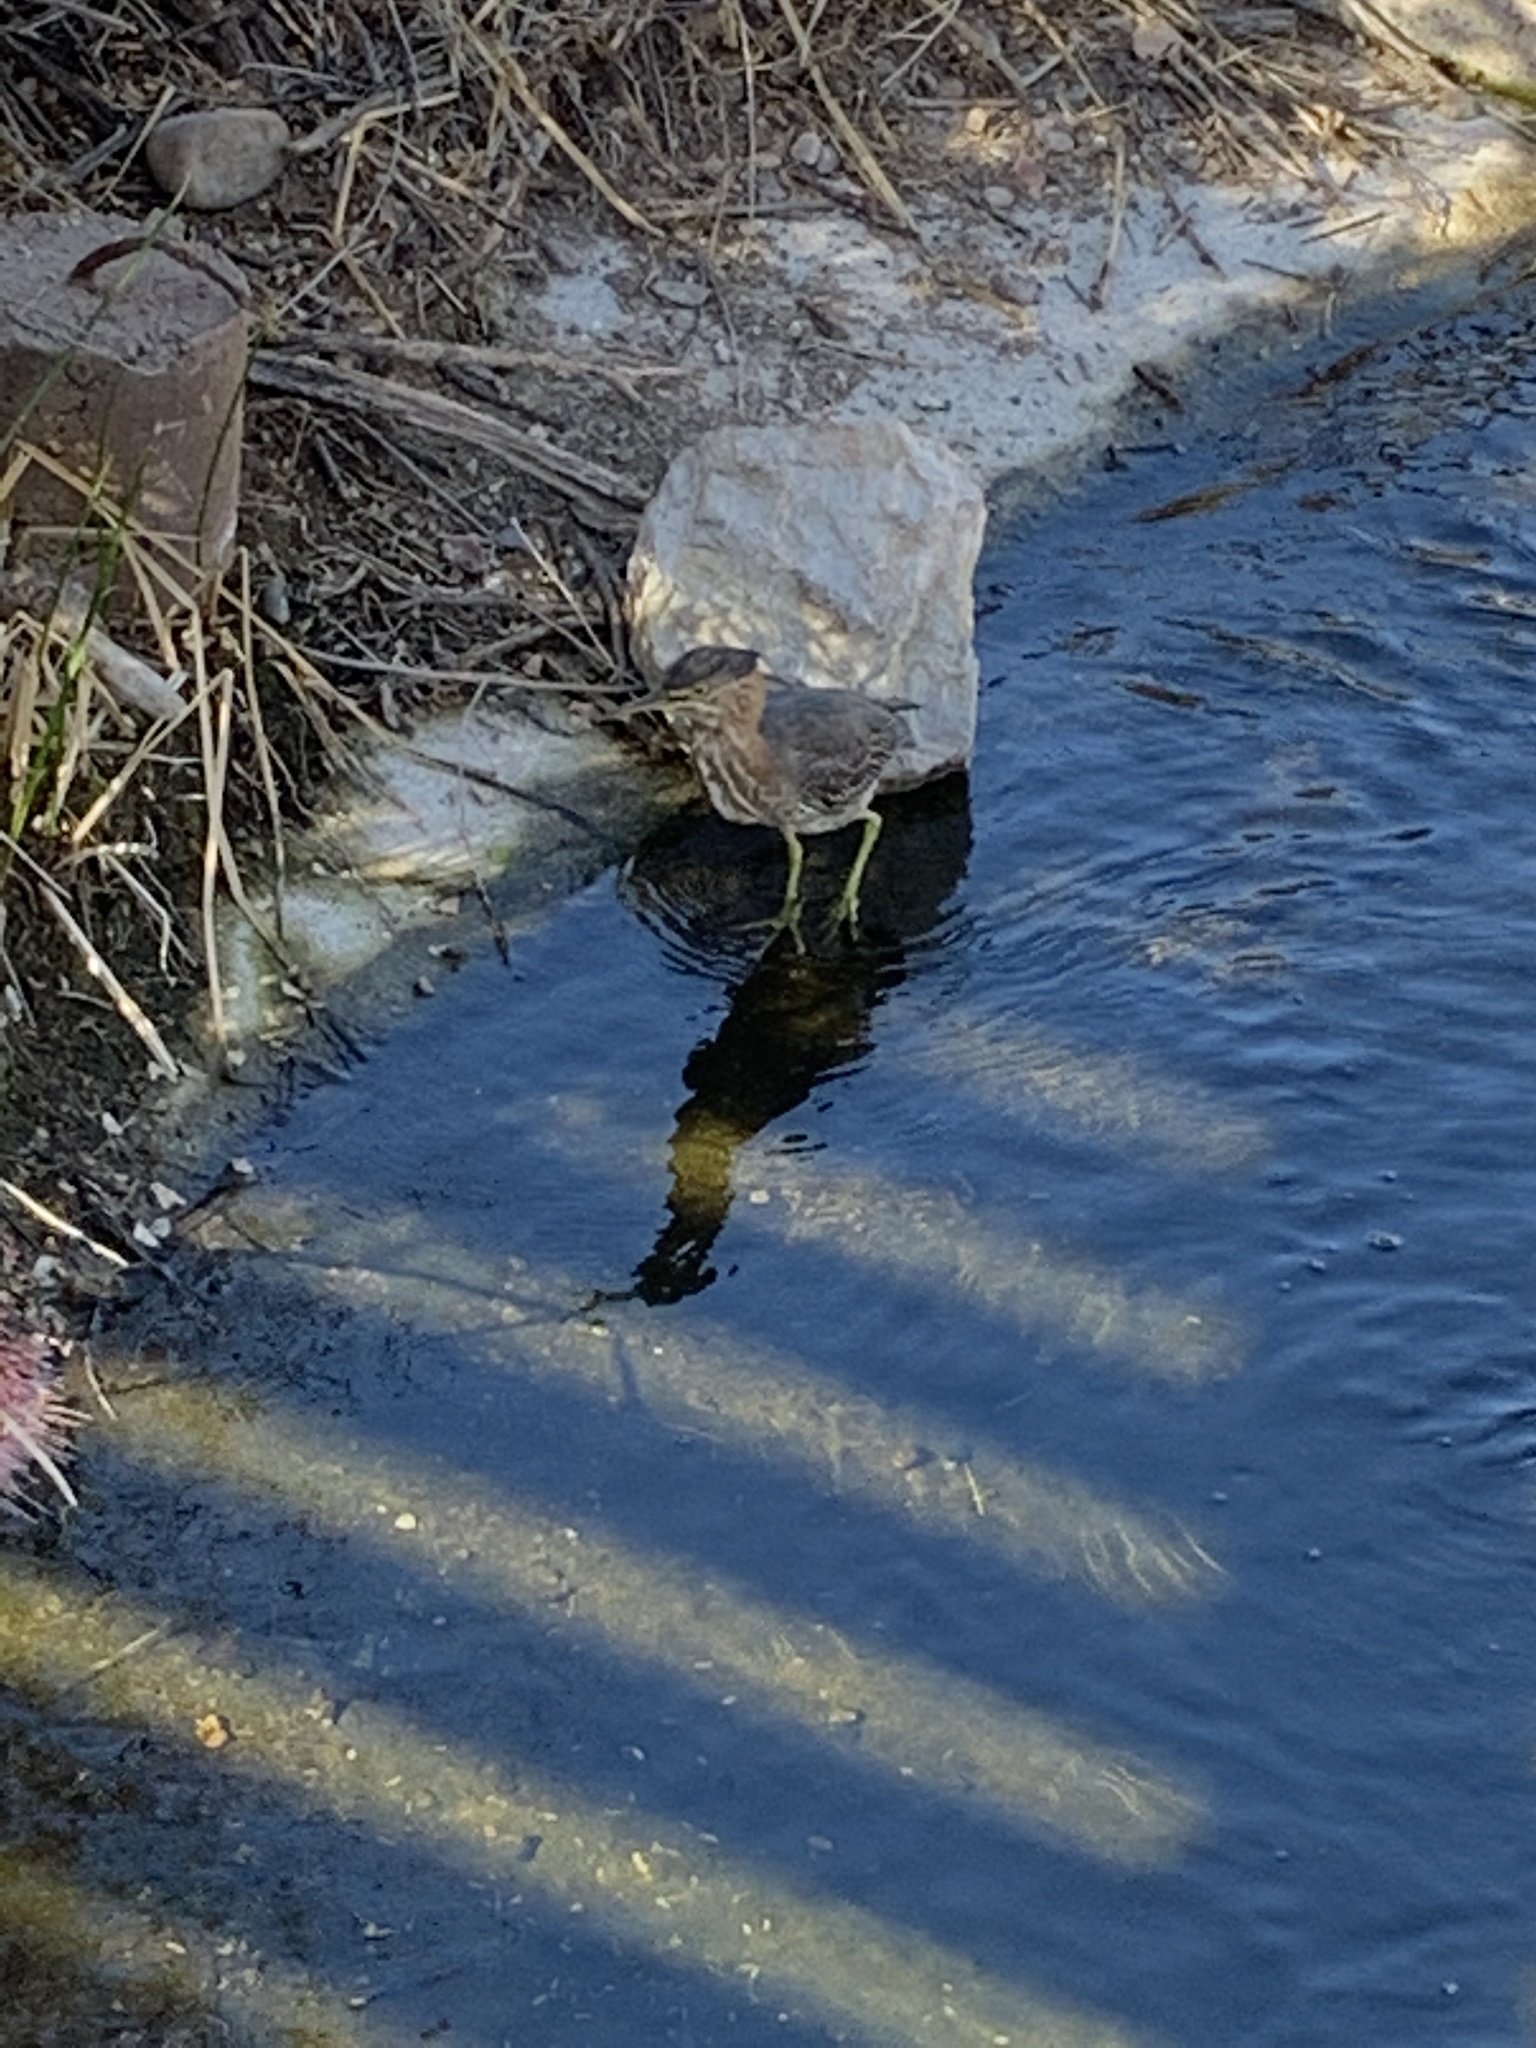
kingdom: Animalia
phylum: Chordata
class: Aves
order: Pelecaniformes
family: Ardeidae
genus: Butorides
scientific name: Butorides virescens
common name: Green heron
